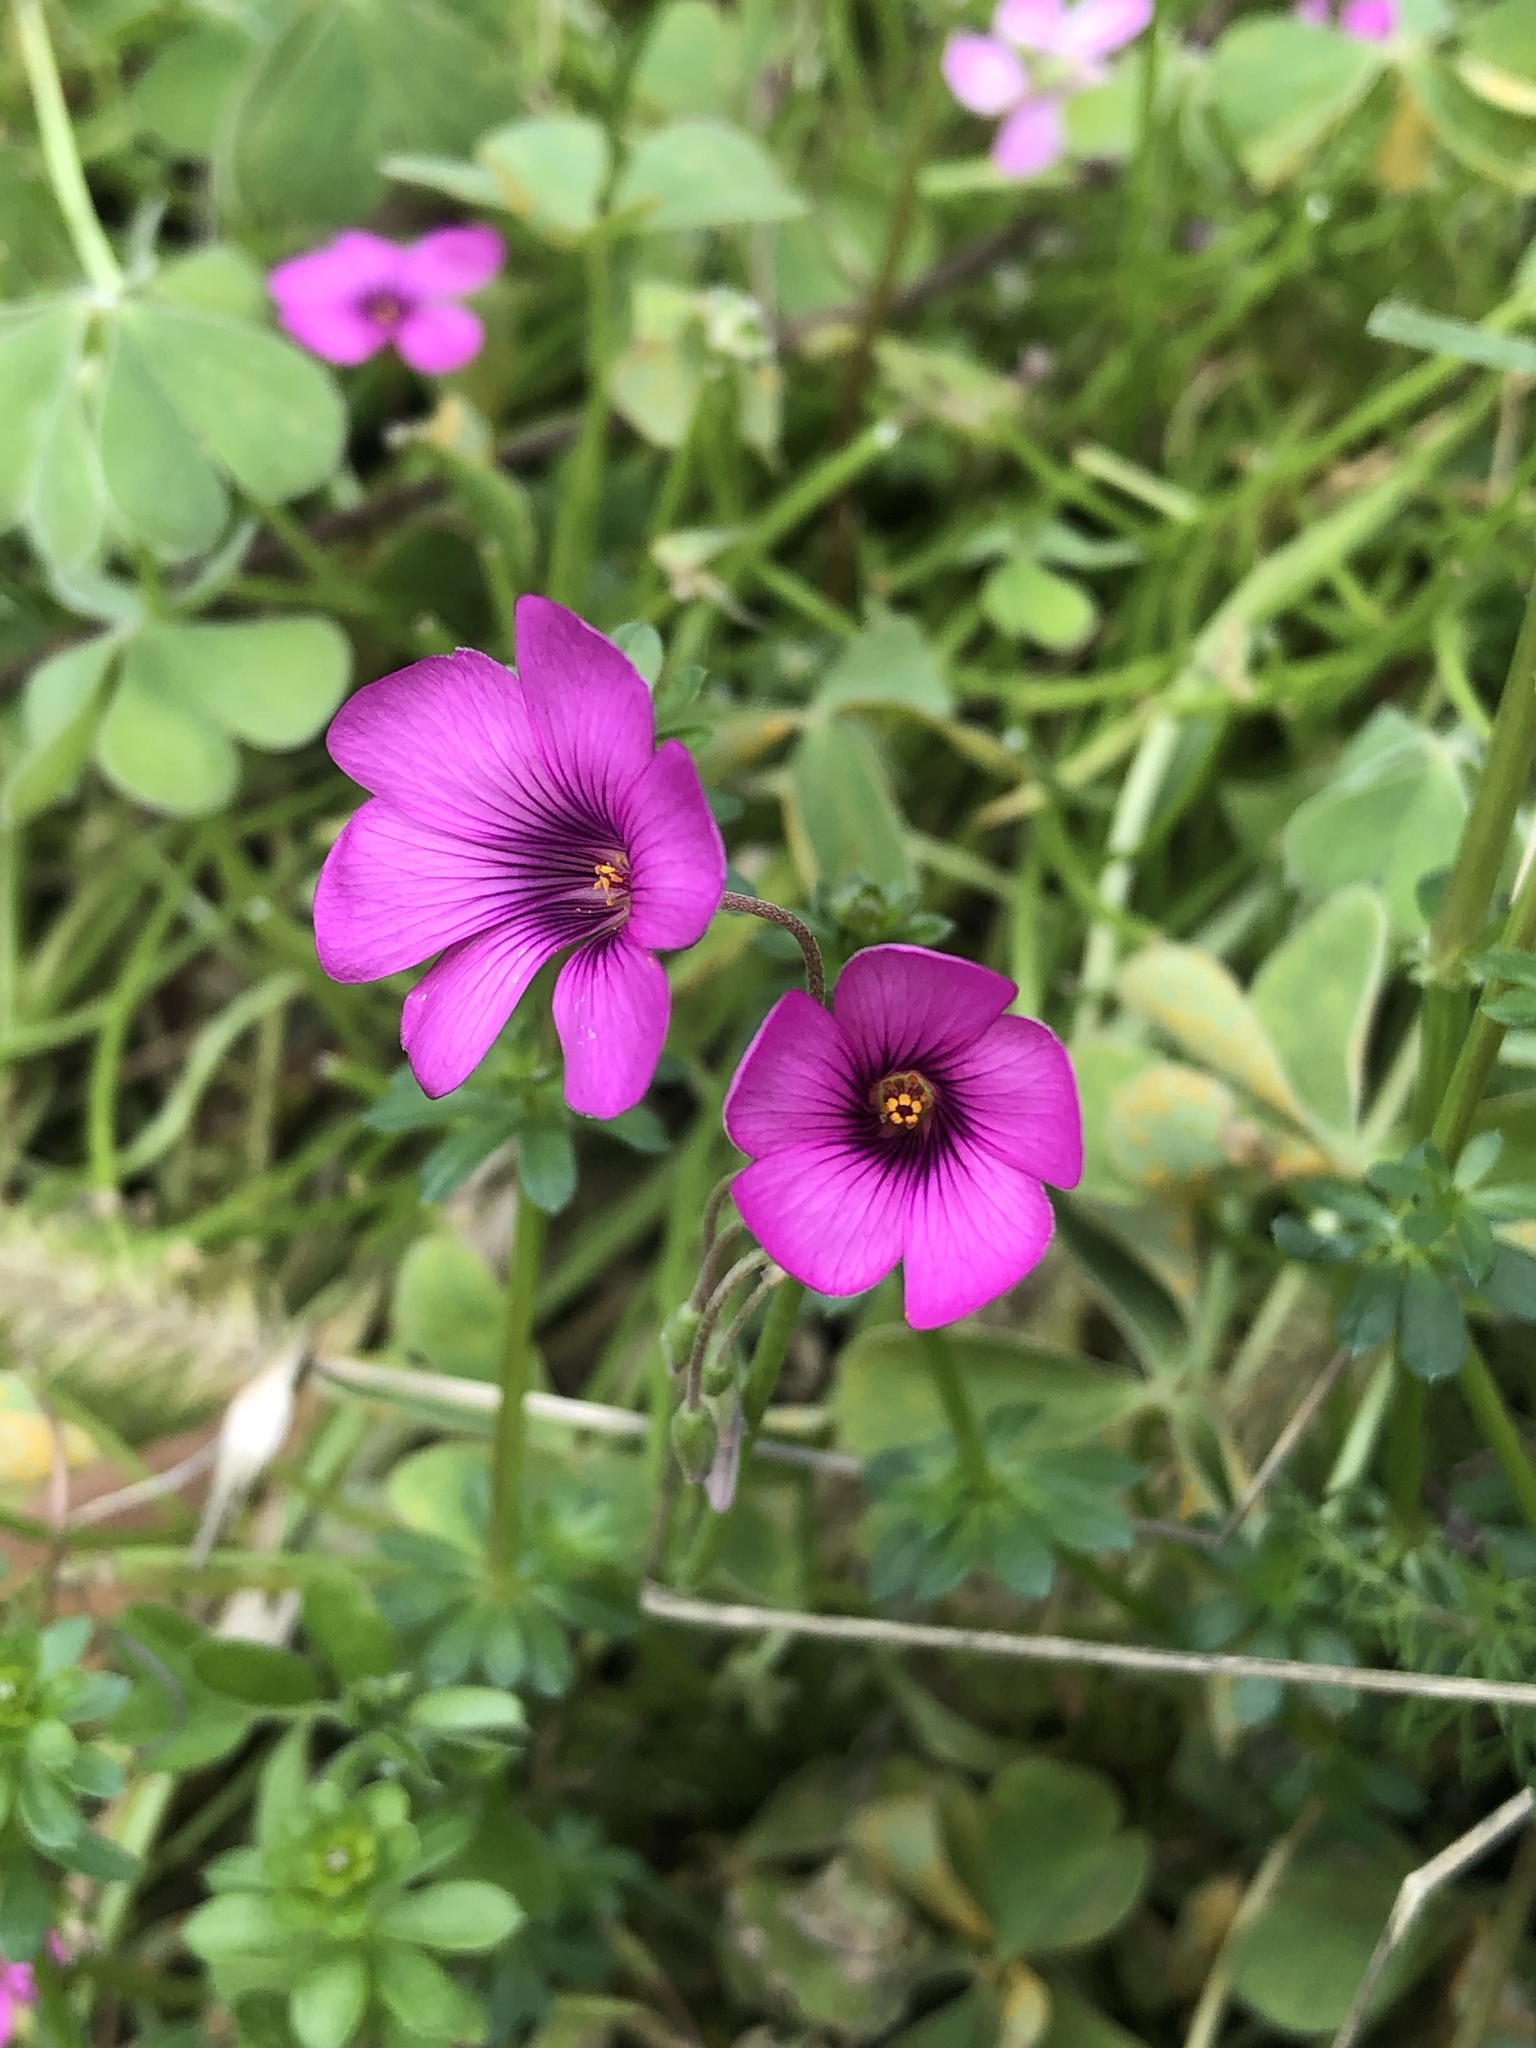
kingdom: Plantae
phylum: Tracheophyta
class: Magnoliopsida
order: Oxalidales
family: Oxalidaceae
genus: Oxalis
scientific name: Oxalis articulata
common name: Pink-sorrel
